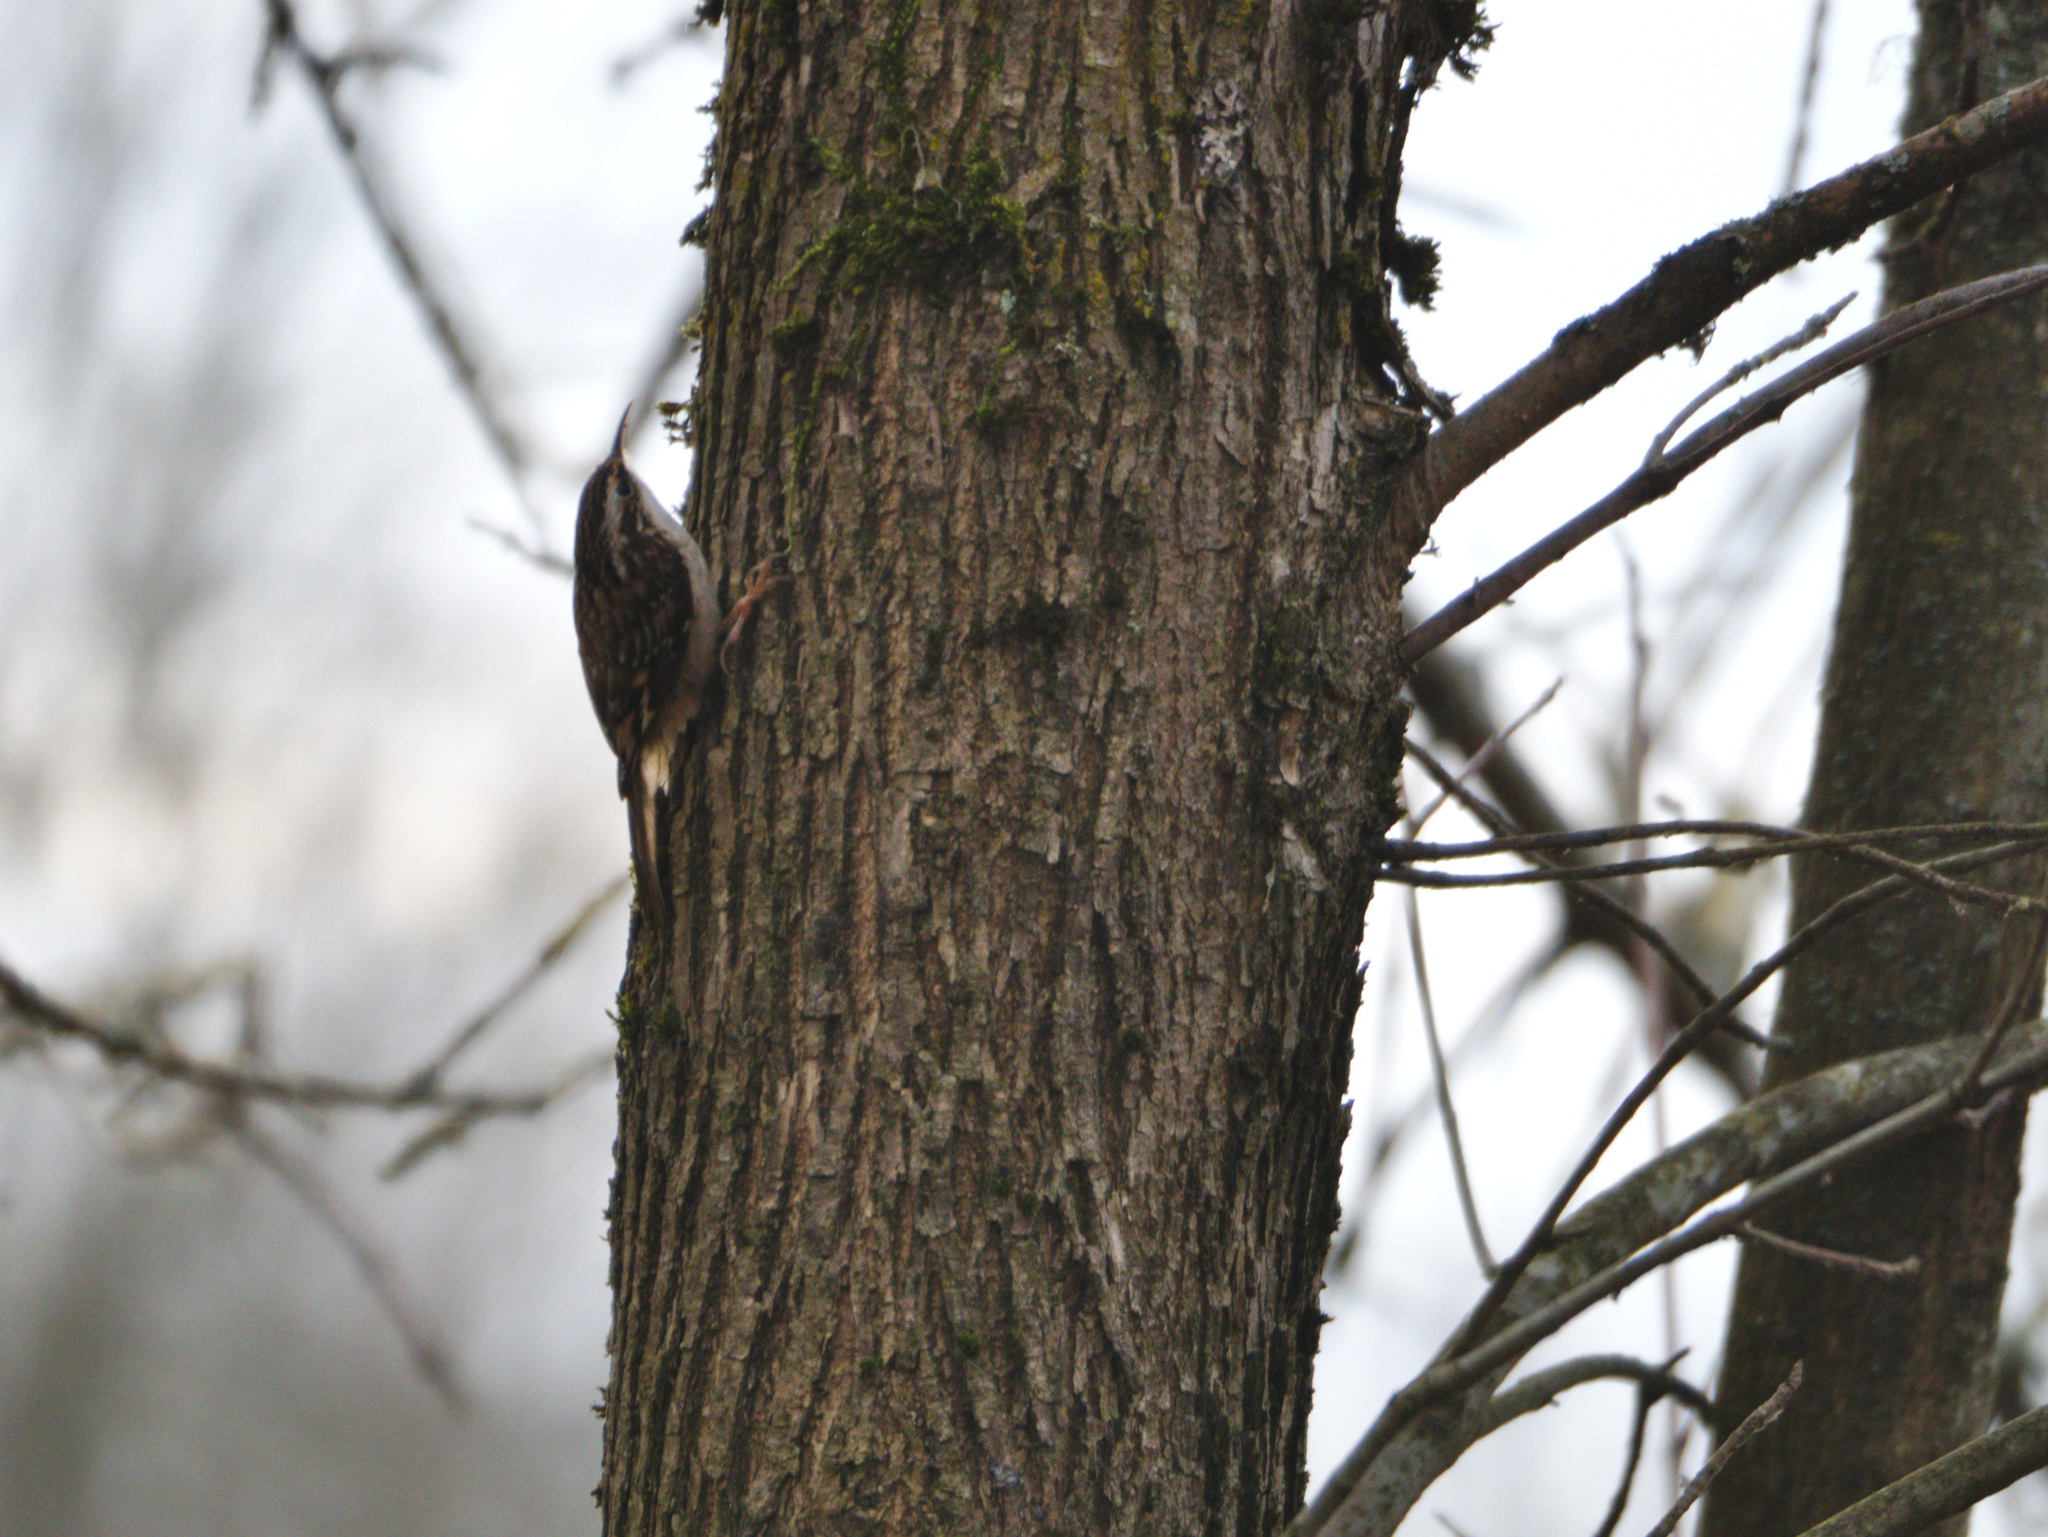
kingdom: Animalia
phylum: Chordata
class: Aves
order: Passeriformes
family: Certhiidae
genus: Certhia
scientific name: Certhia americana
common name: Brown creeper
